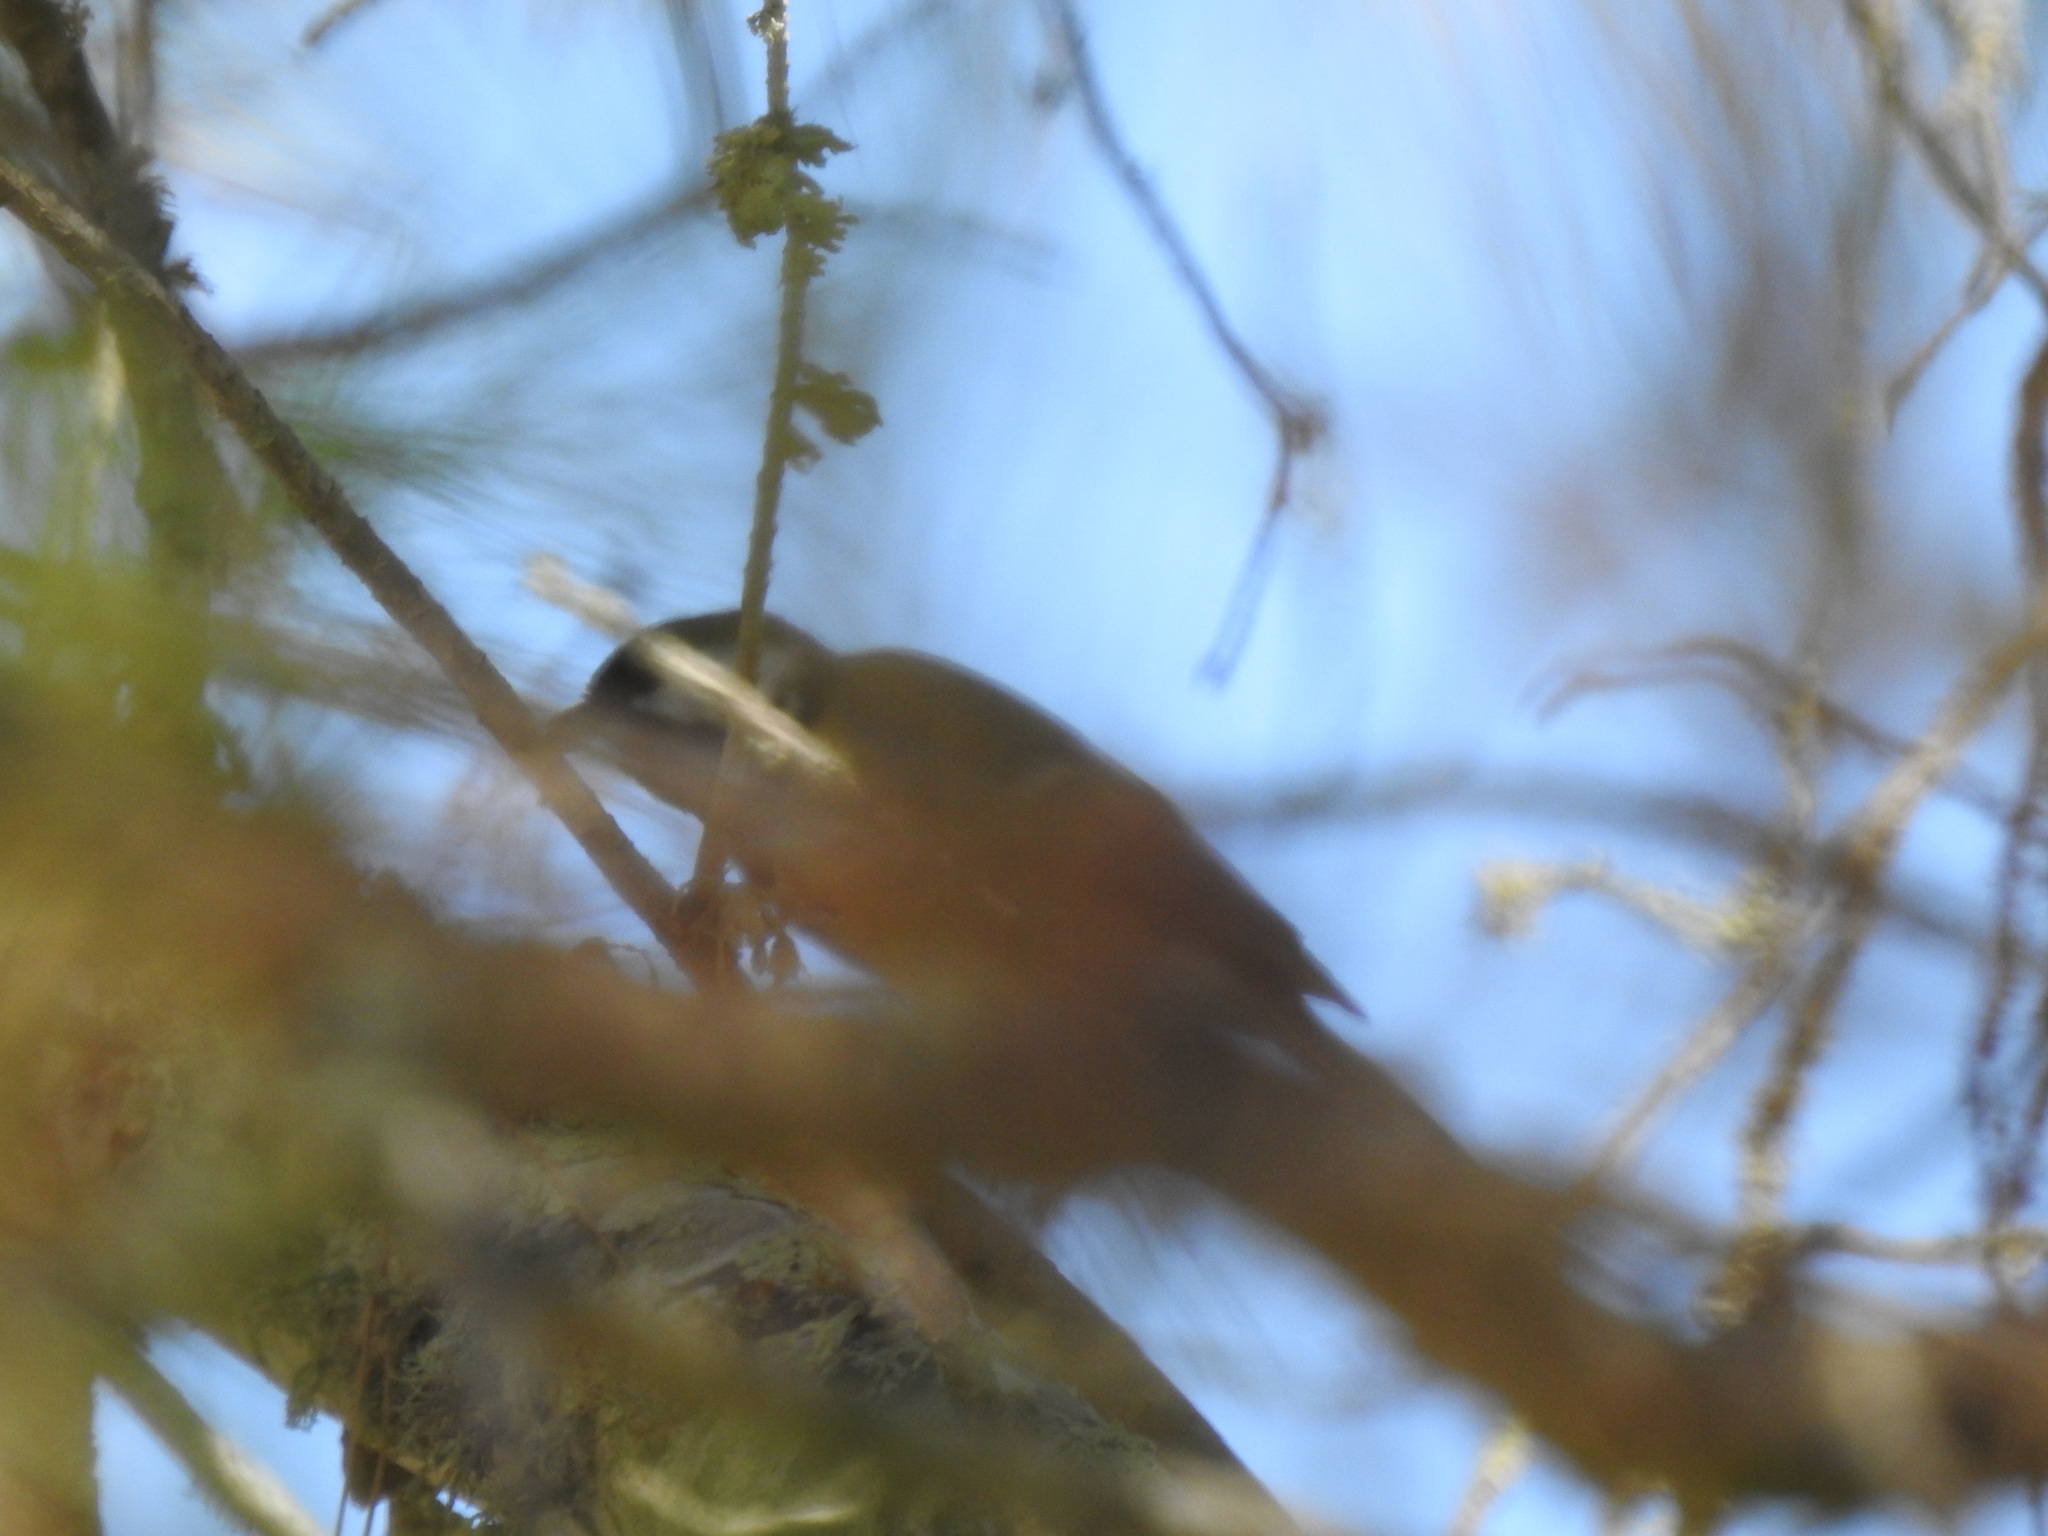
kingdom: Animalia
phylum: Chordata
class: Aves
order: Passeriformes
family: Paridae
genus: Parus
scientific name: Parus major
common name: Great tit
